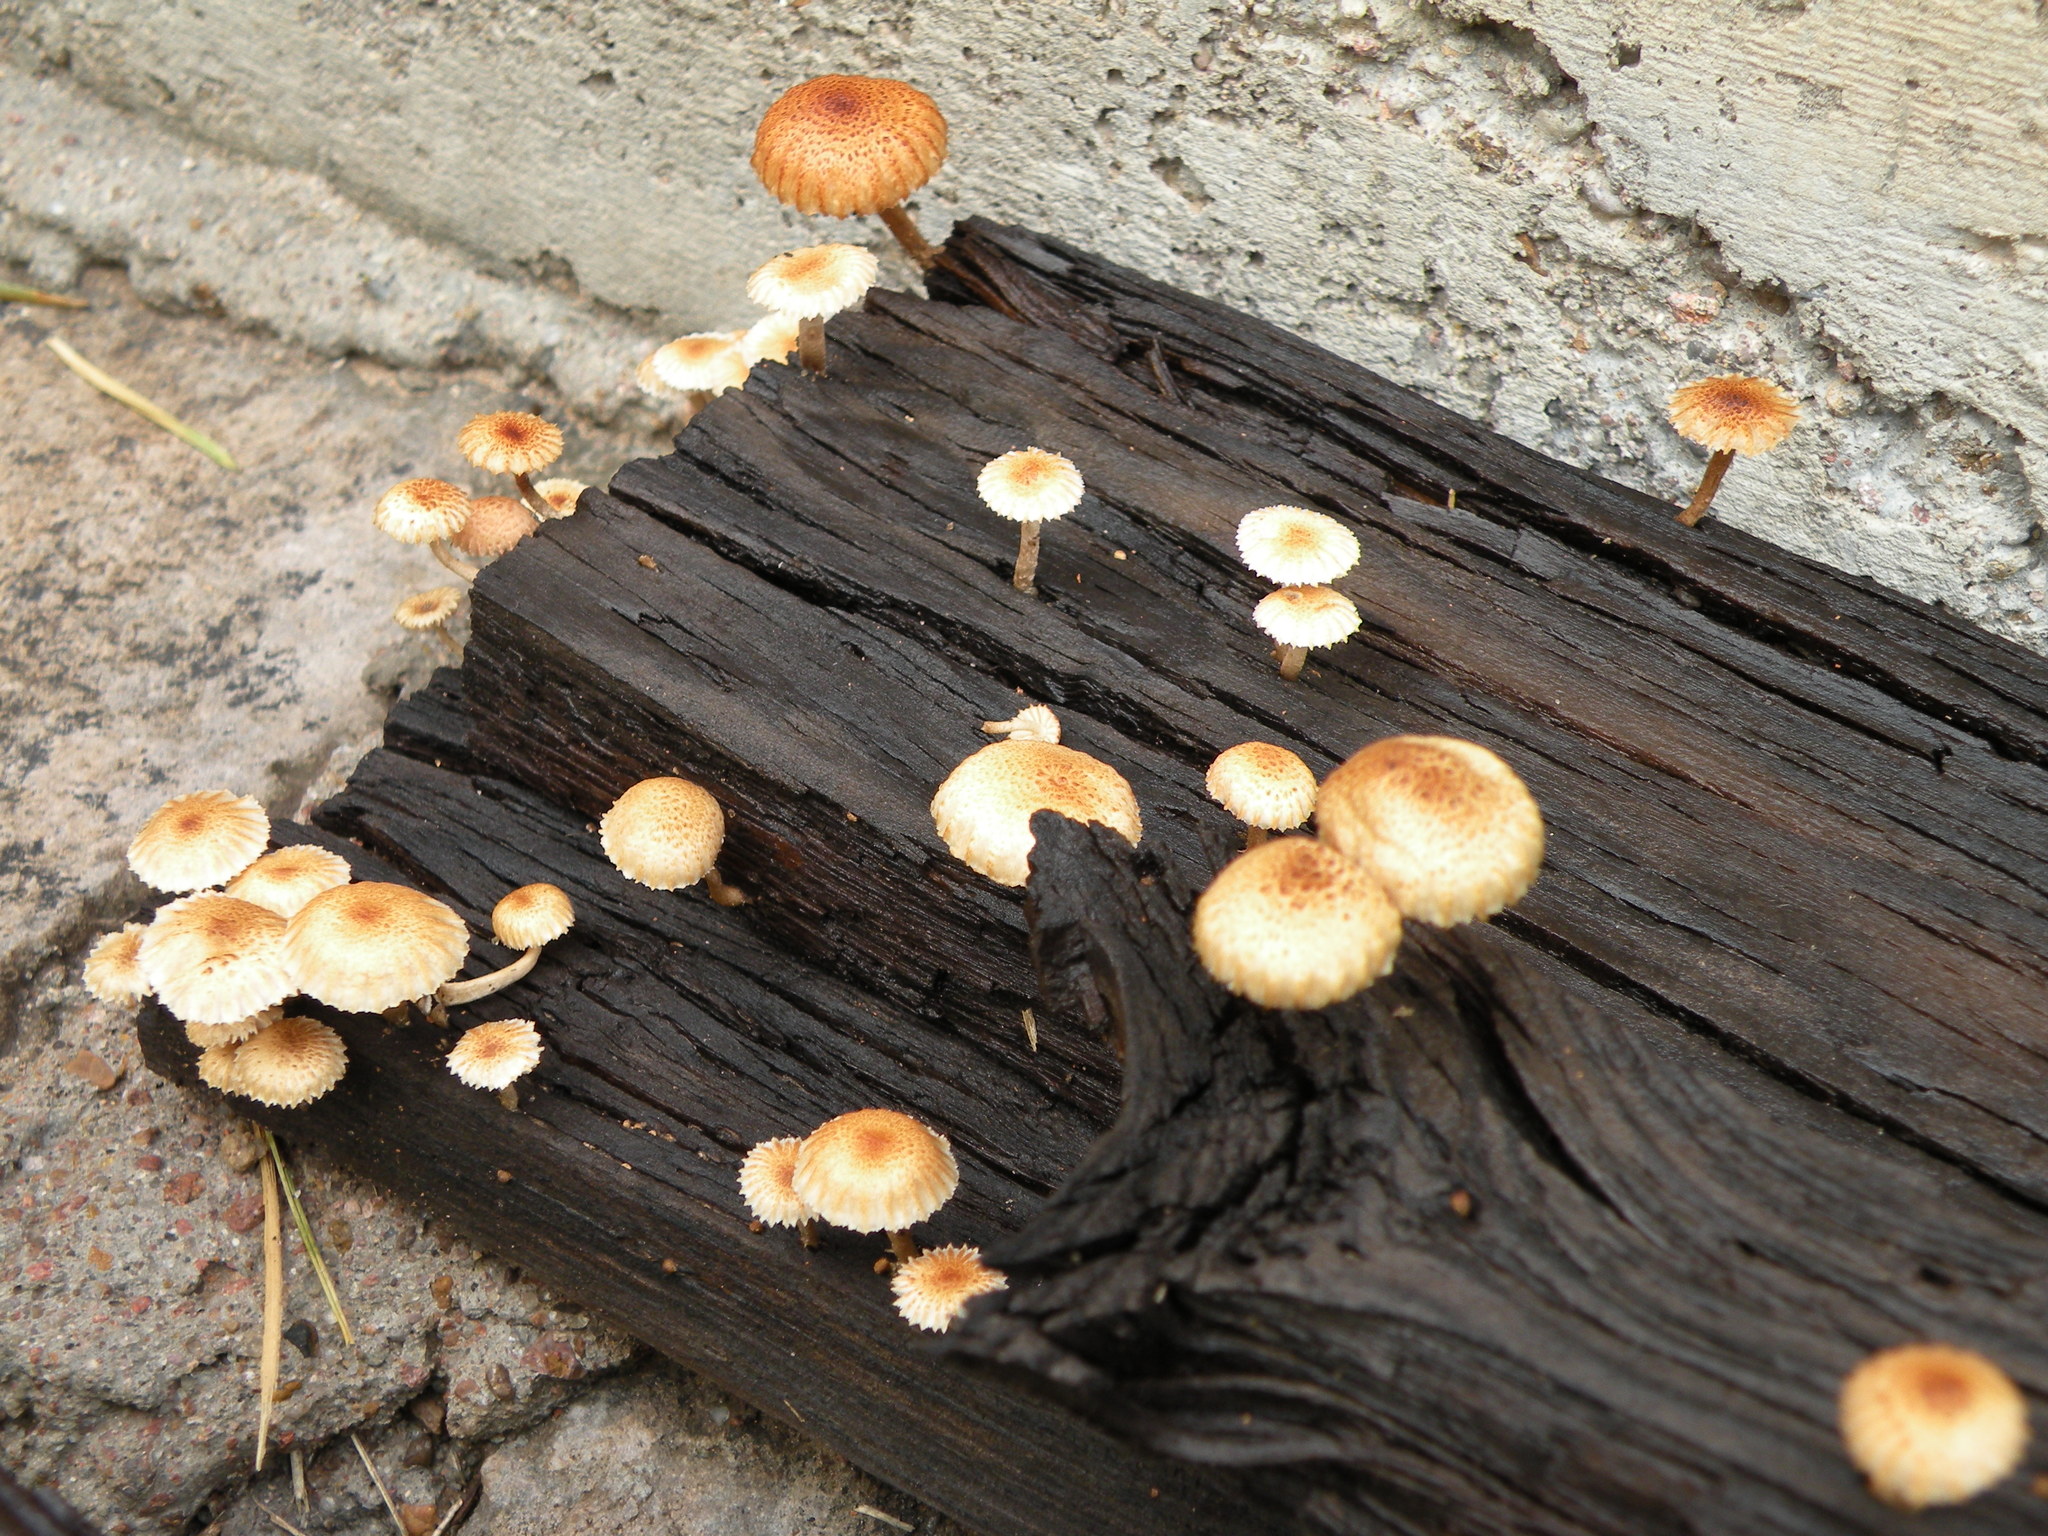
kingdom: Fungi
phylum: Basidiomycota
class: Agaricomycetes
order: Gloeophyllales
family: Gloeophyllaceae
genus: Heliocybe
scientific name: Heliocybe sulcata
